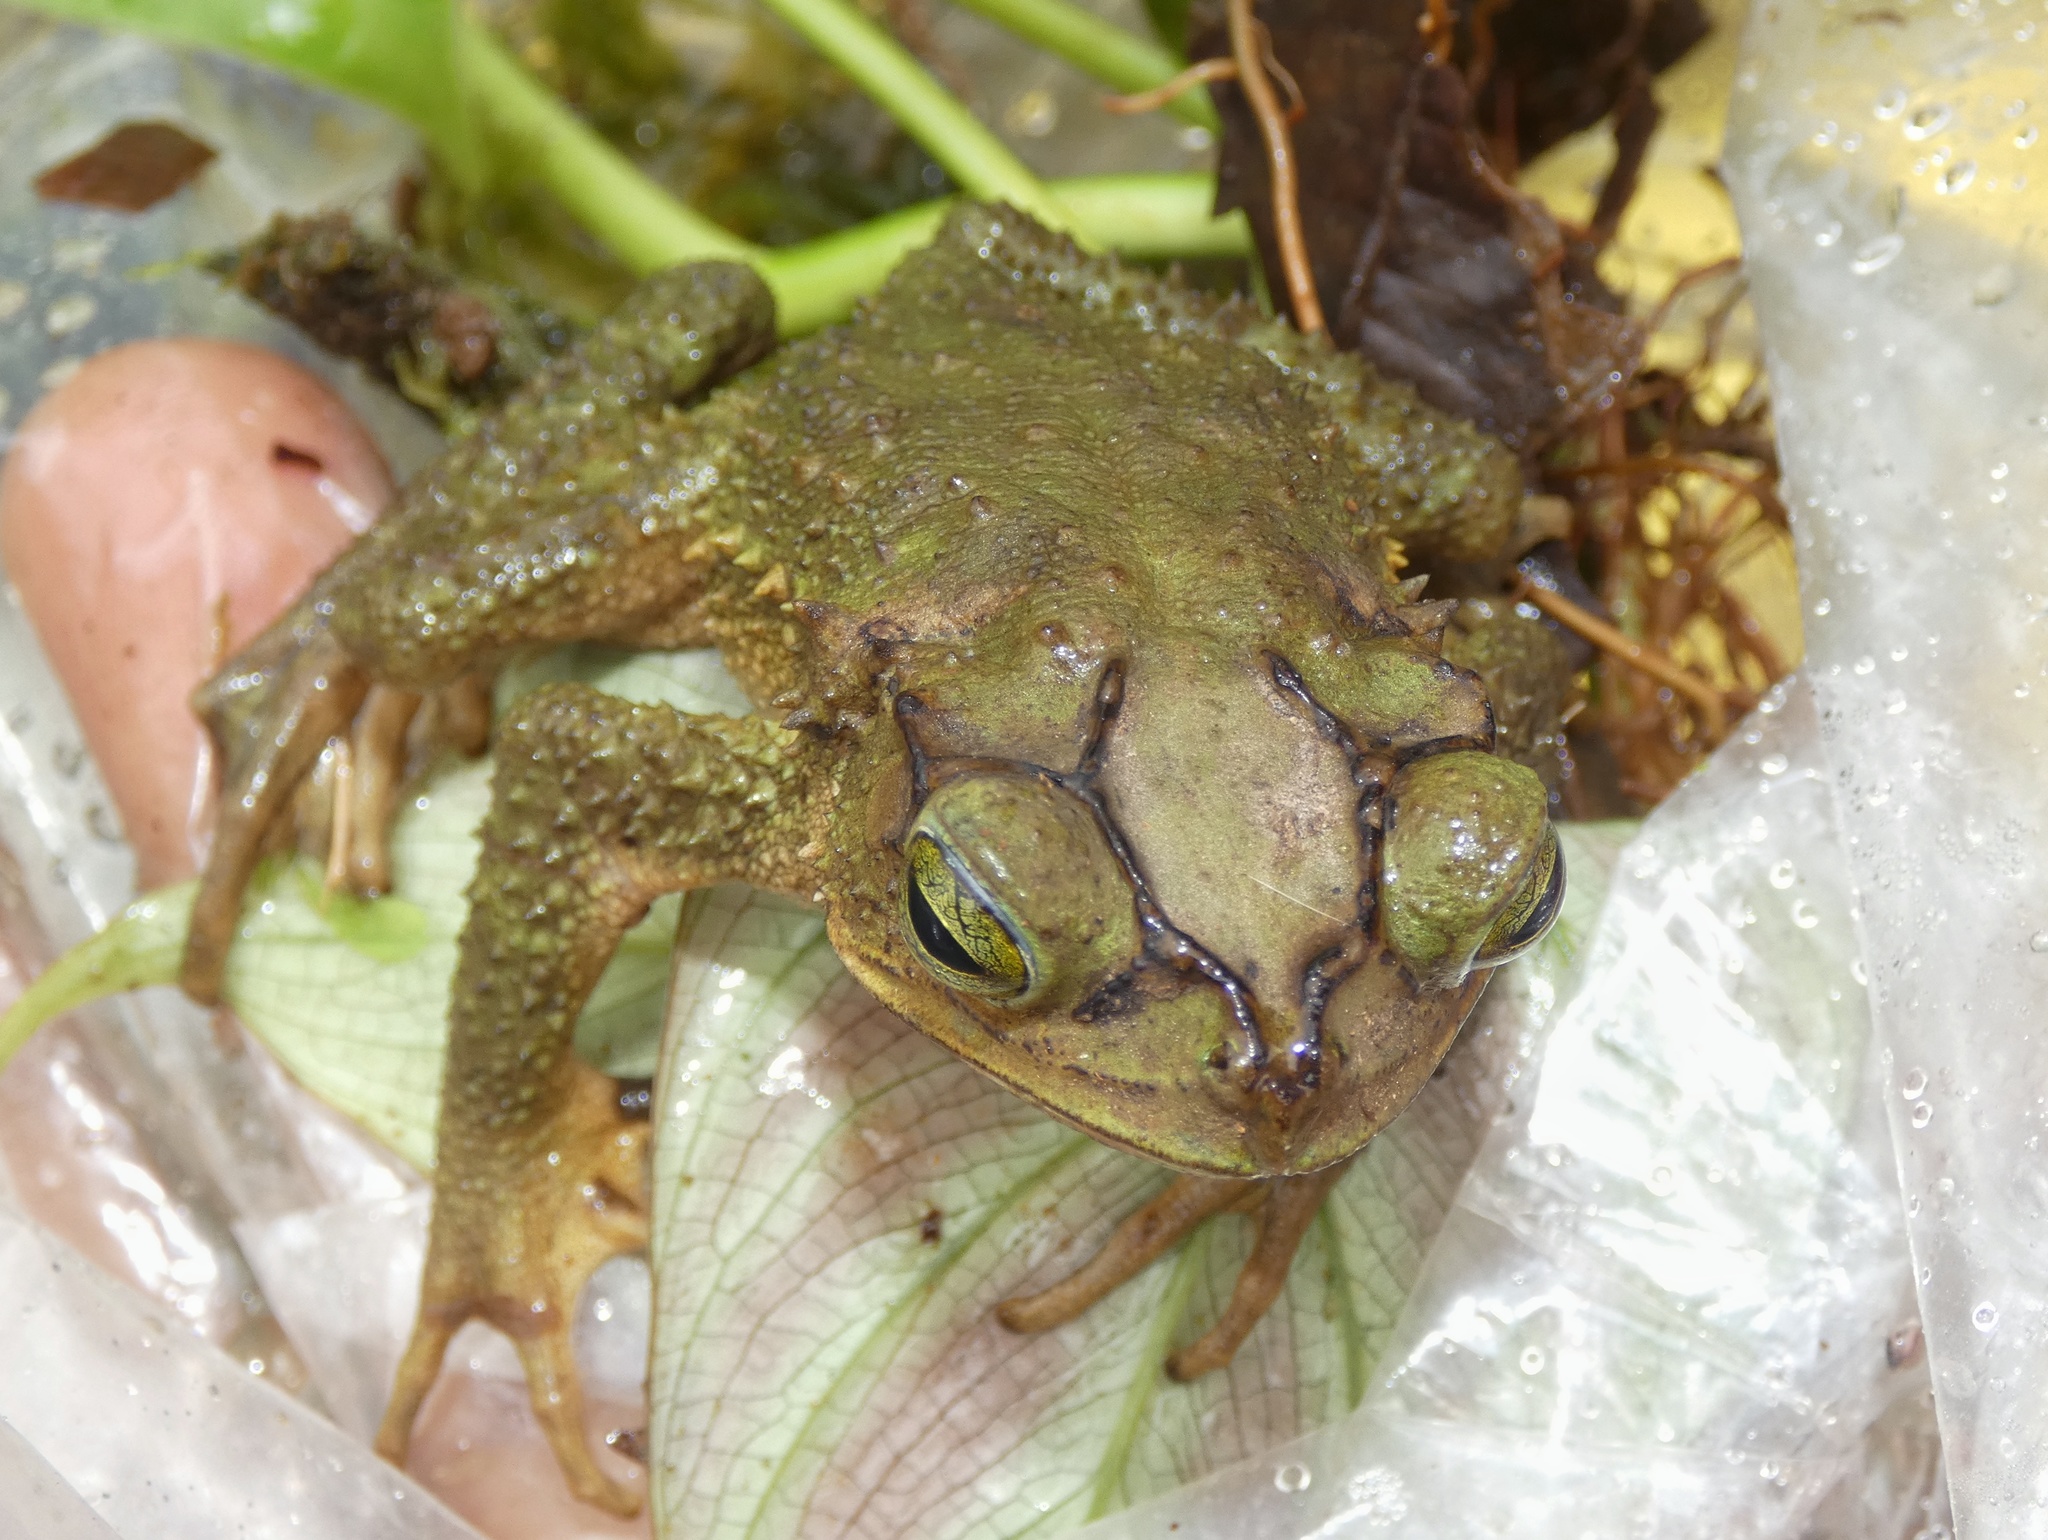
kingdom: Animalia
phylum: Chordata
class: Amphibia
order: Anura
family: Bufonidae
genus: Incilius
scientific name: Incilius coniferus
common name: Evergreen toad
